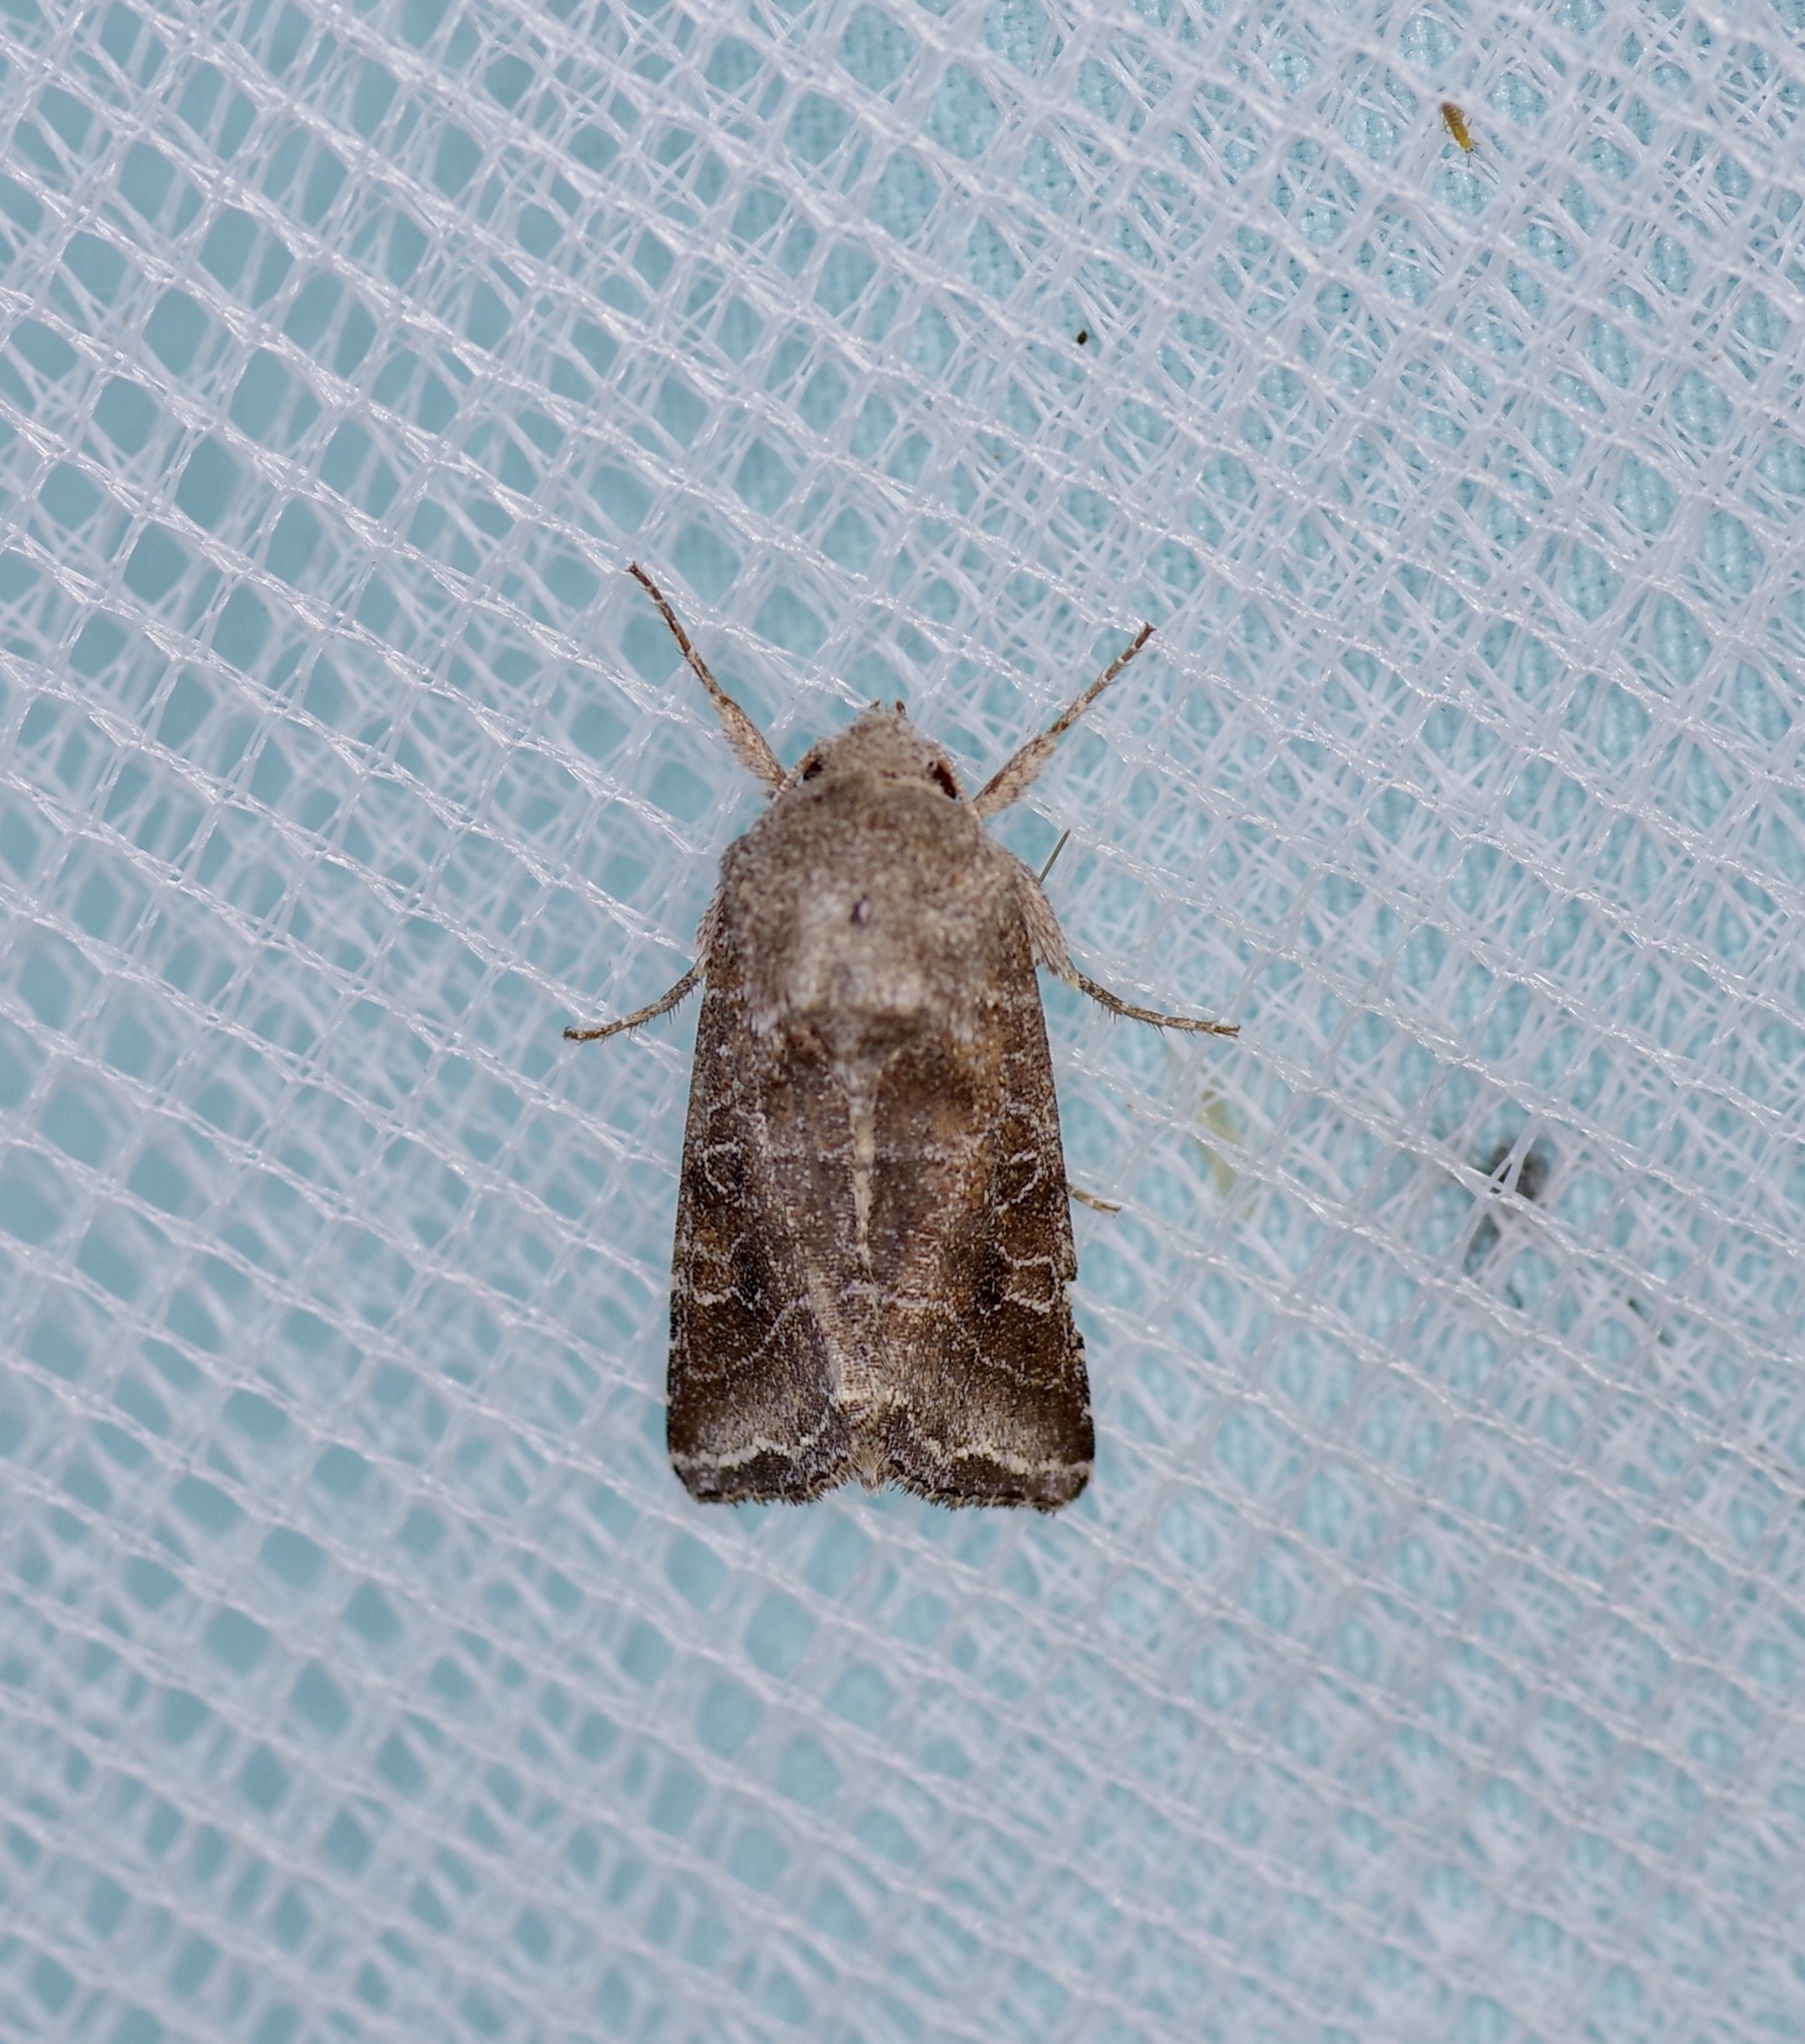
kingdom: Animalia
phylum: Arthropoda
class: Insecta
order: Lepidoptera
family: Noctuidae
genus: Lacinipolia
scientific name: Lacinipolia erecta
